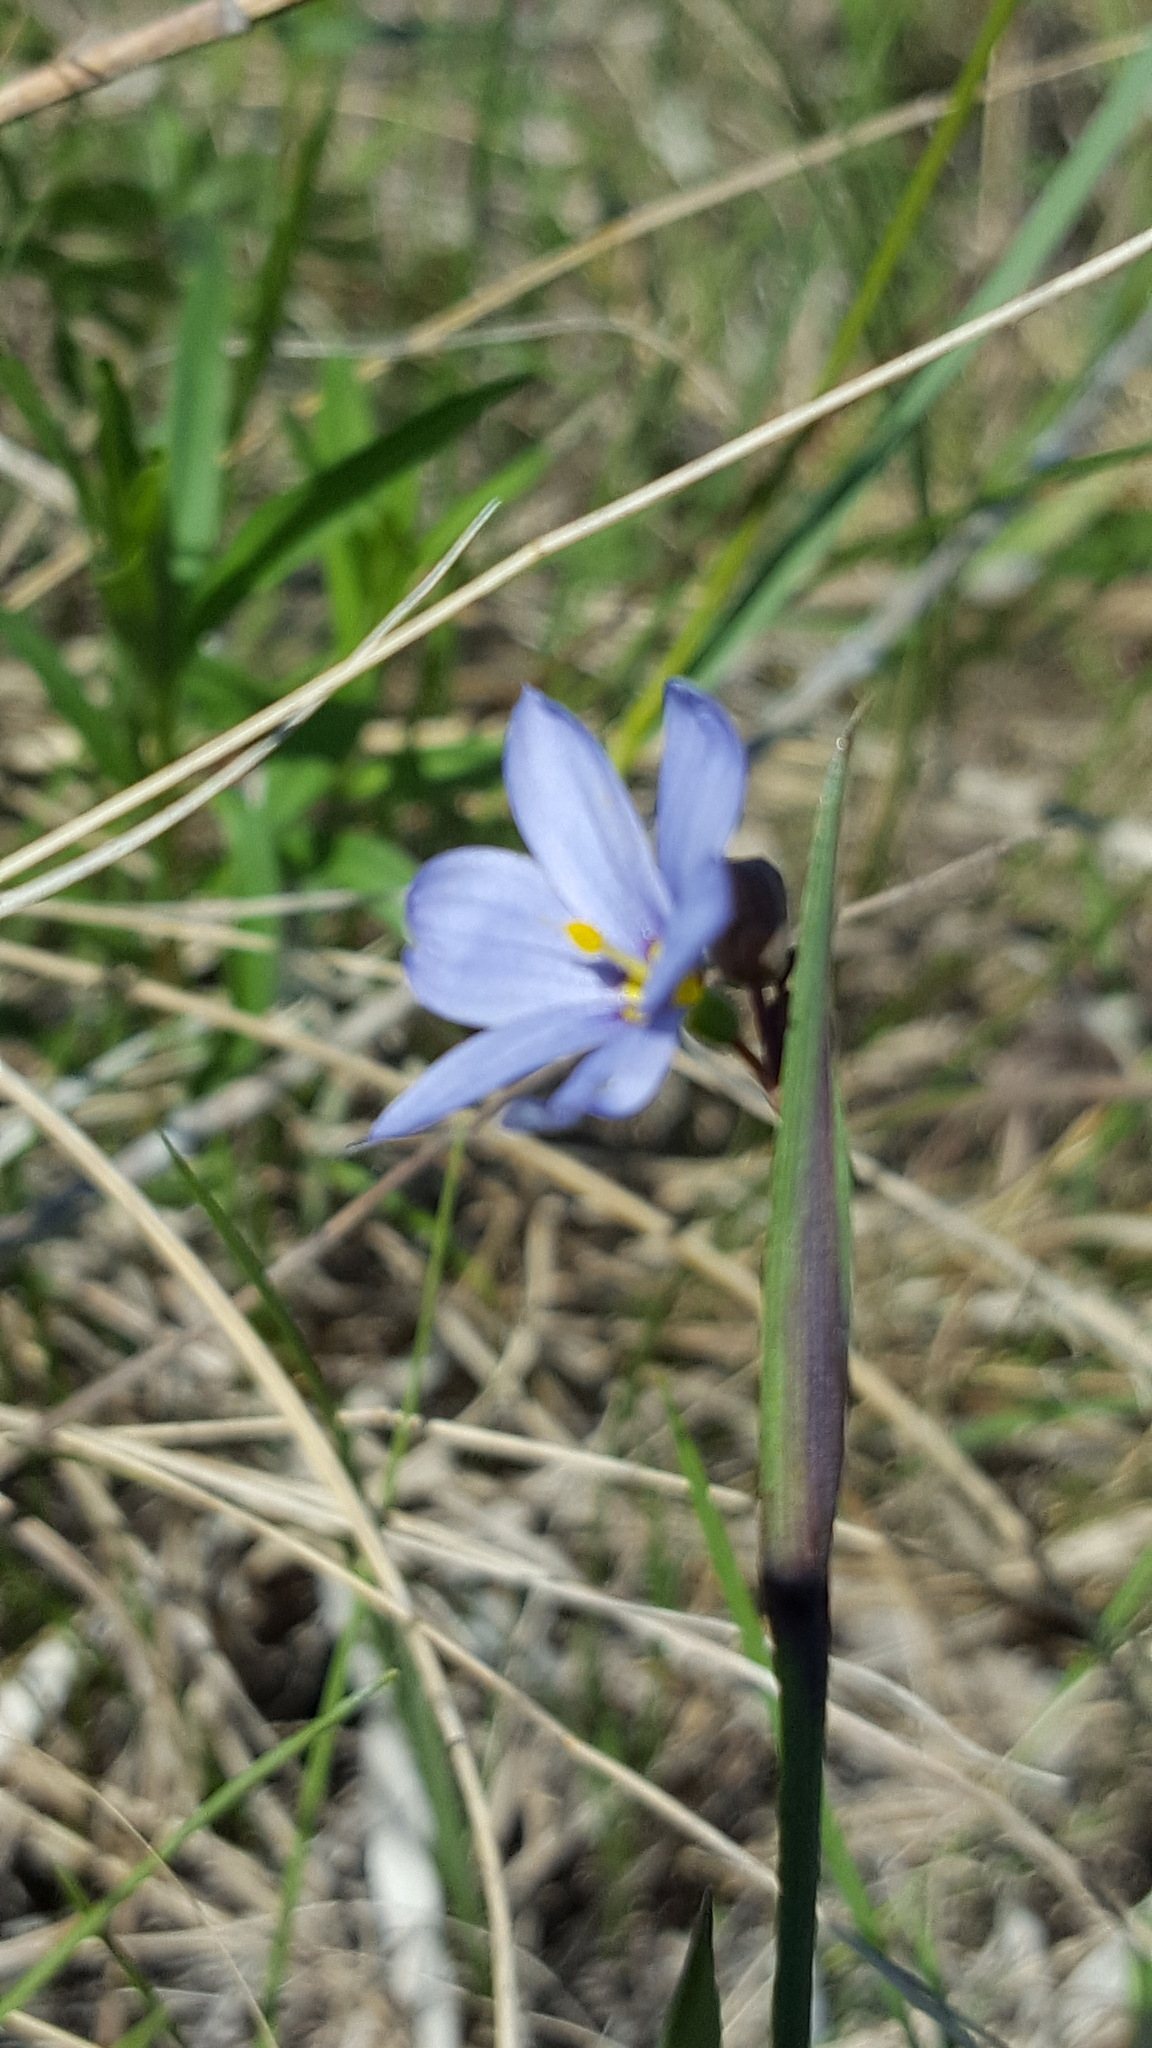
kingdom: Plantae
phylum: Tracheophyta
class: Liliopsida
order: Asparagales
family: Iridaceae
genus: Sisyrinchium
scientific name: Sisyrinchium campestre
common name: Prairie blue-eyed-grass
